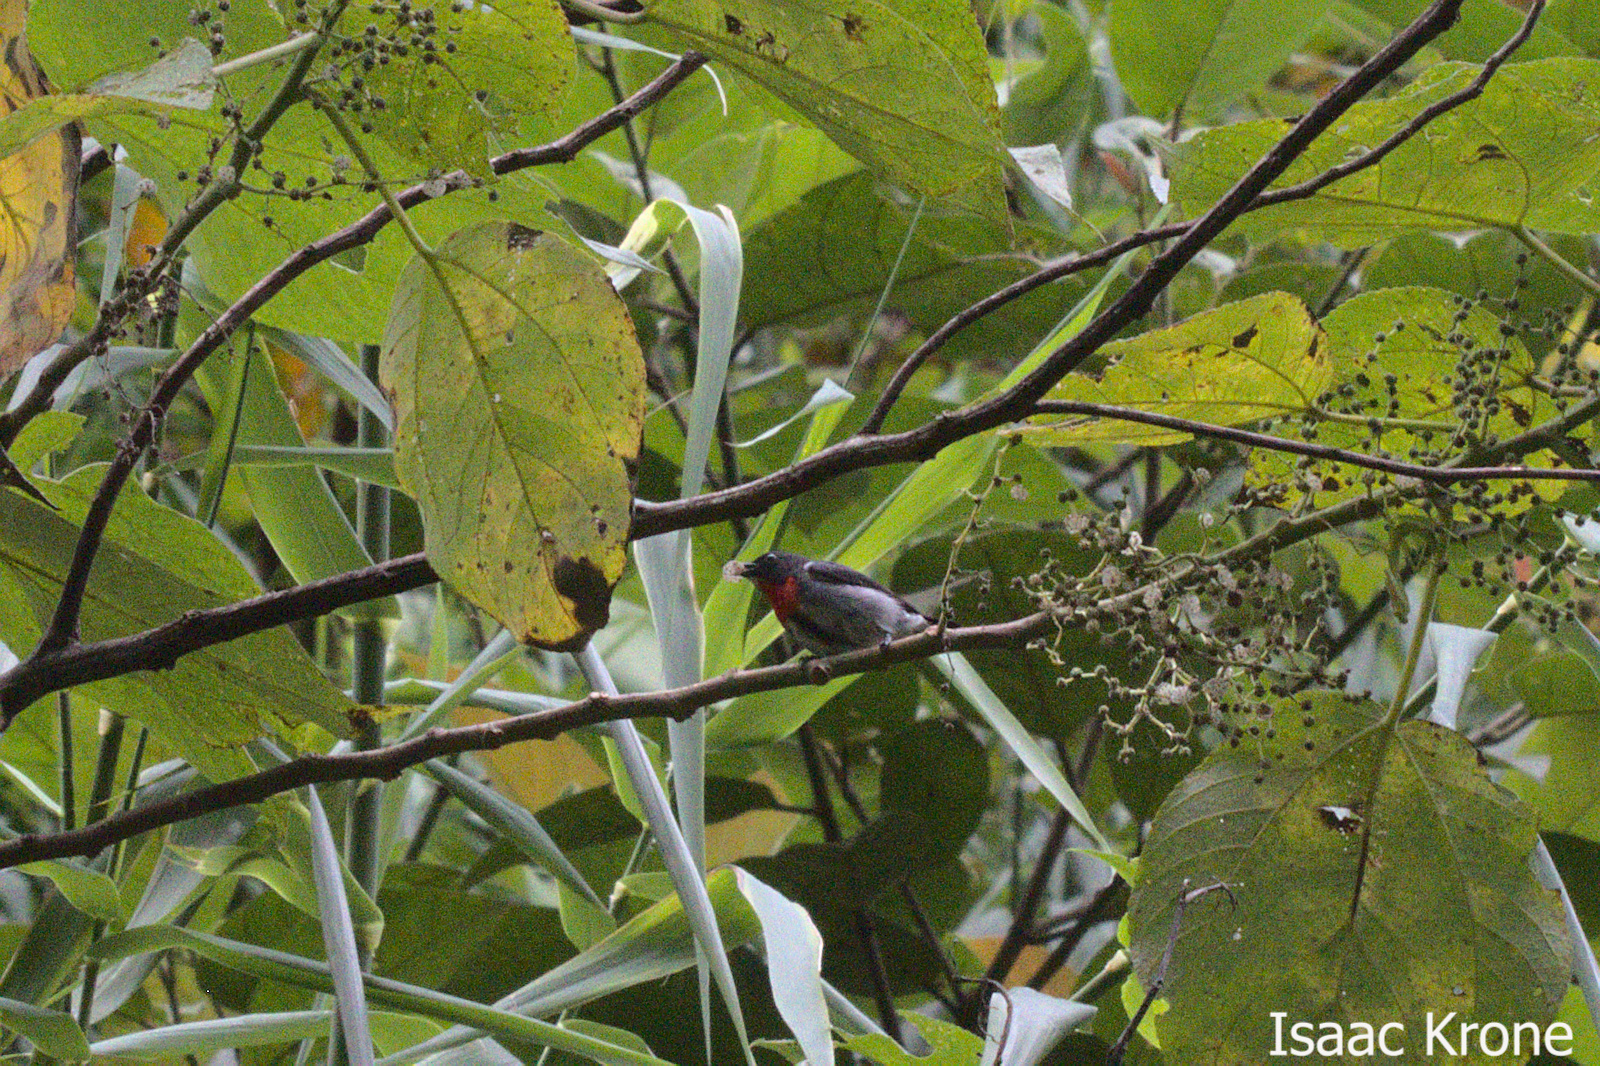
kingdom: Animalia
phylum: Chordata
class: Aves
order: Passeriformes
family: Dicaeidae
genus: Dicaeum
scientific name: Dicaeum celebicum
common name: Grey-sided flowerpecker
